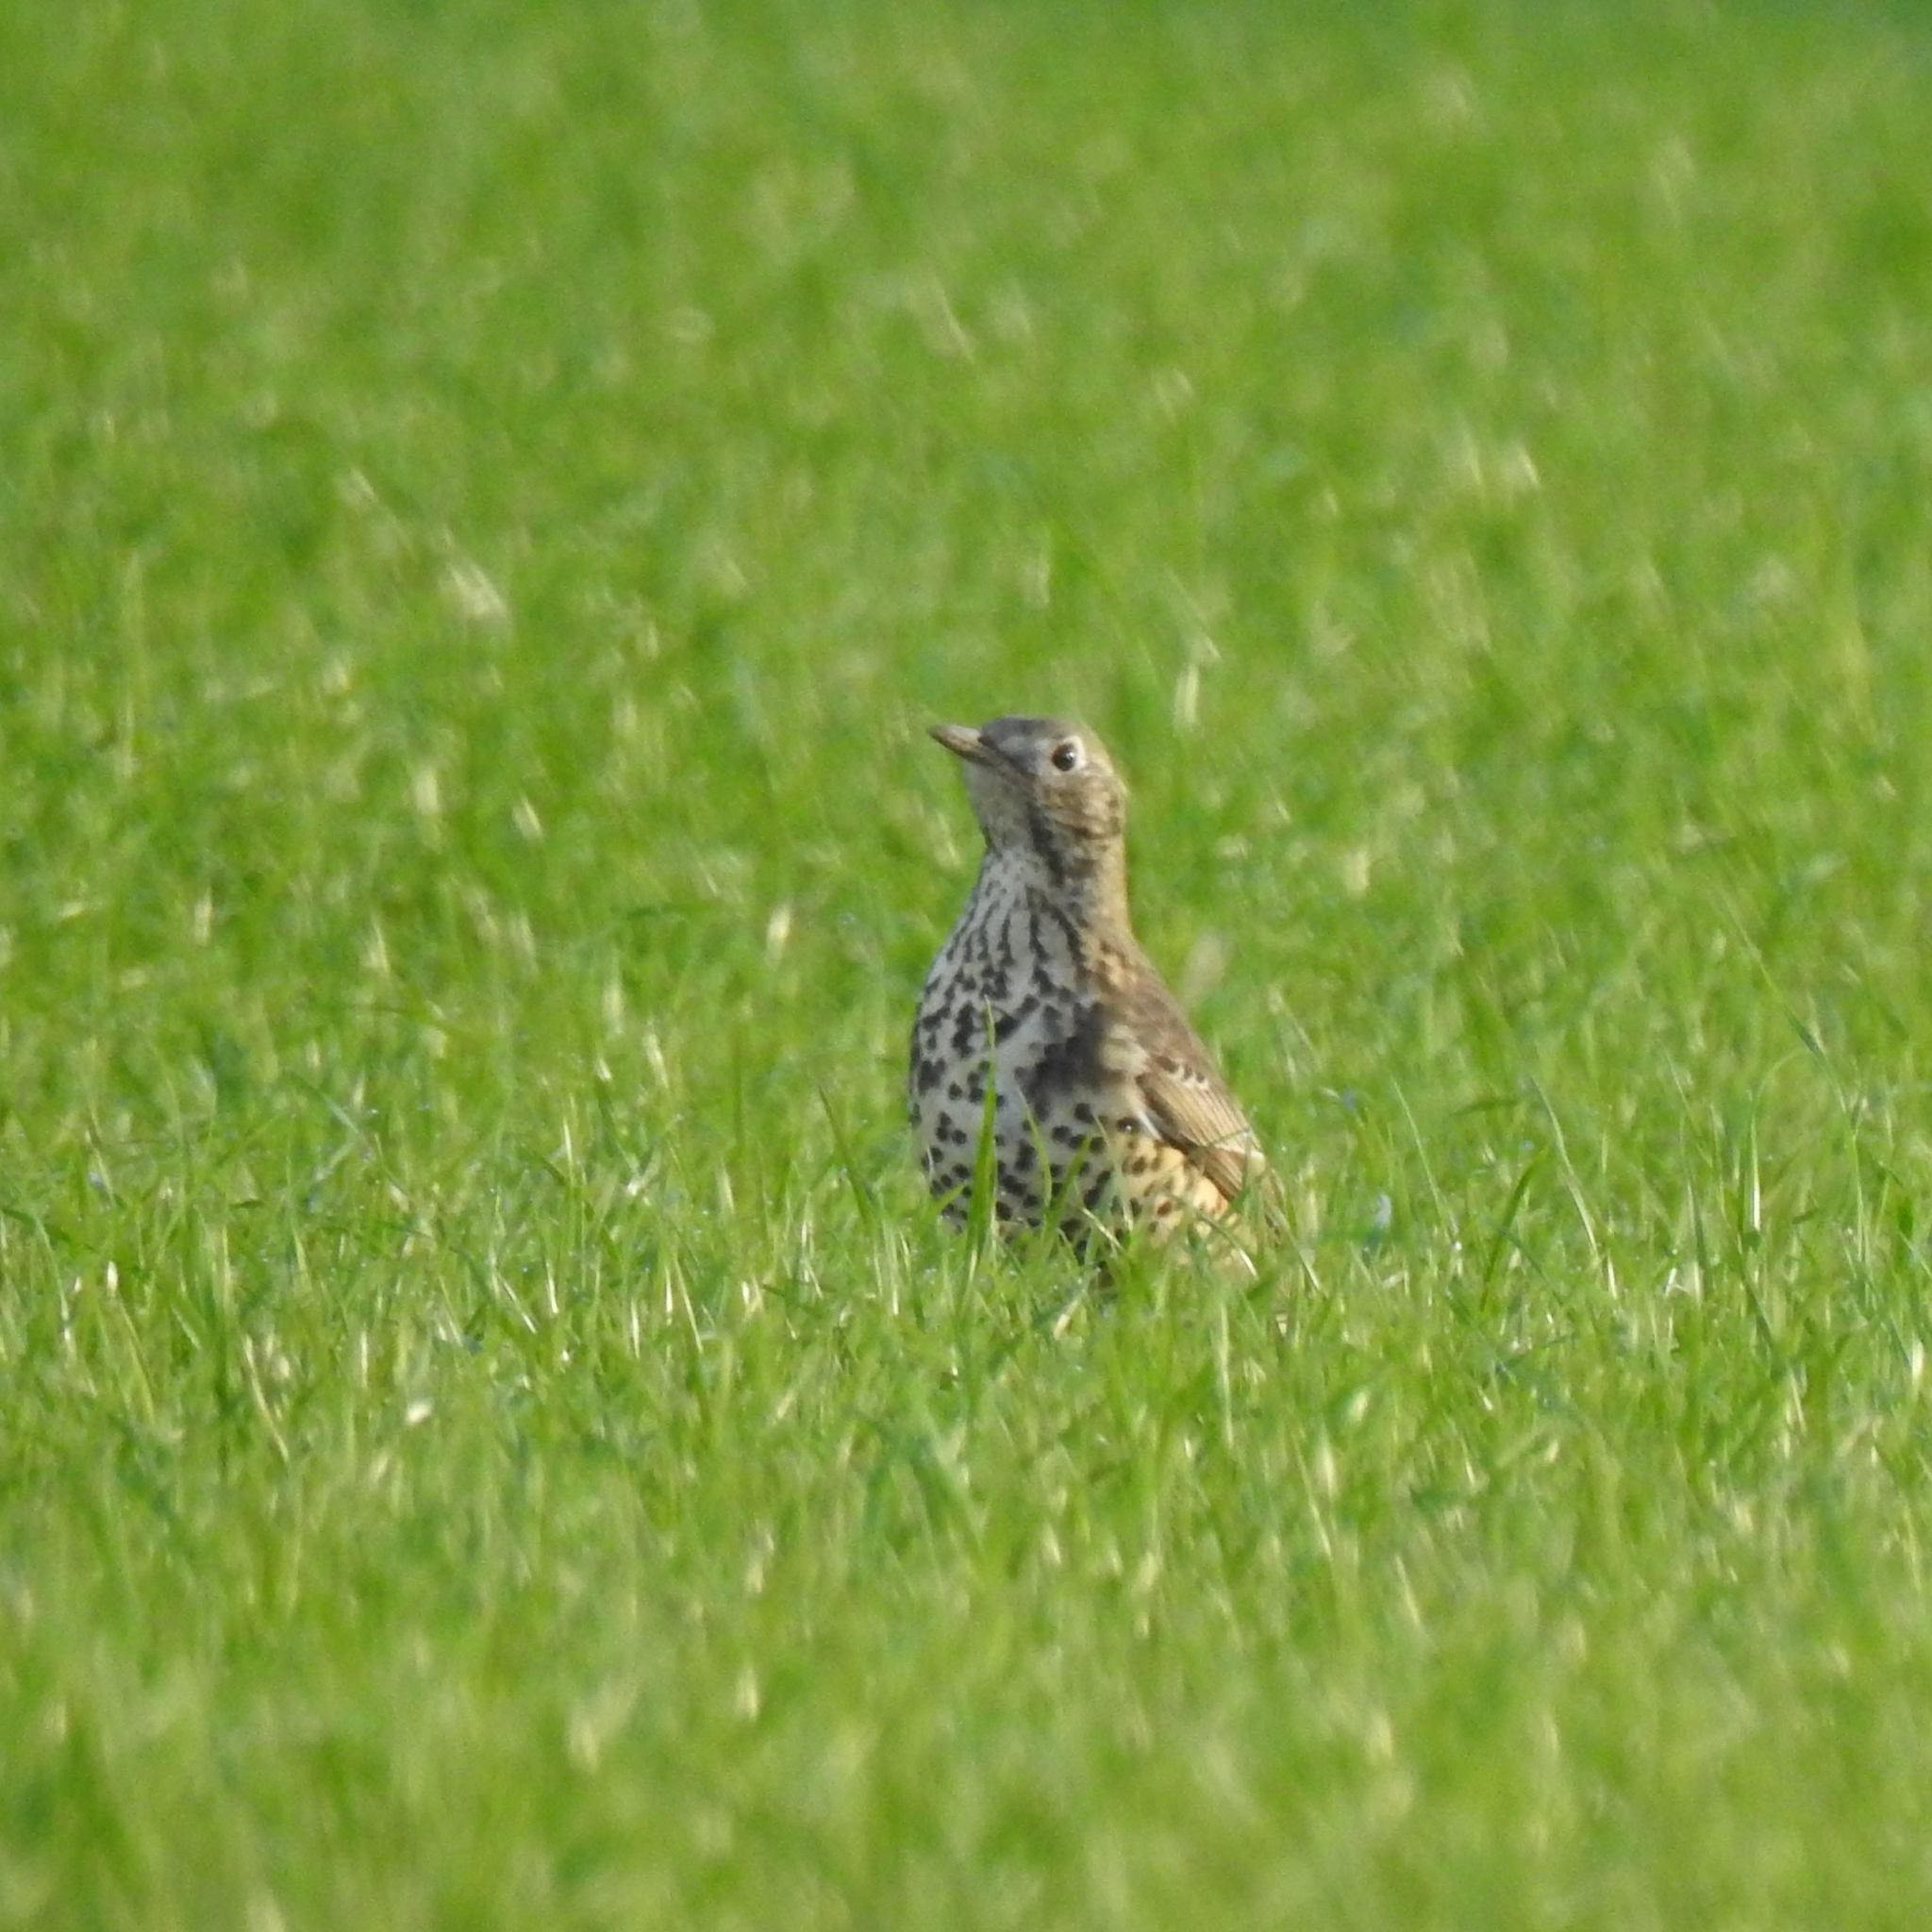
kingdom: Animalia
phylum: Chordata
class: Aves
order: Passeriformes
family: Turdidae
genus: Turdus
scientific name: Turdus viscivorus
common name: Mistle thrush
